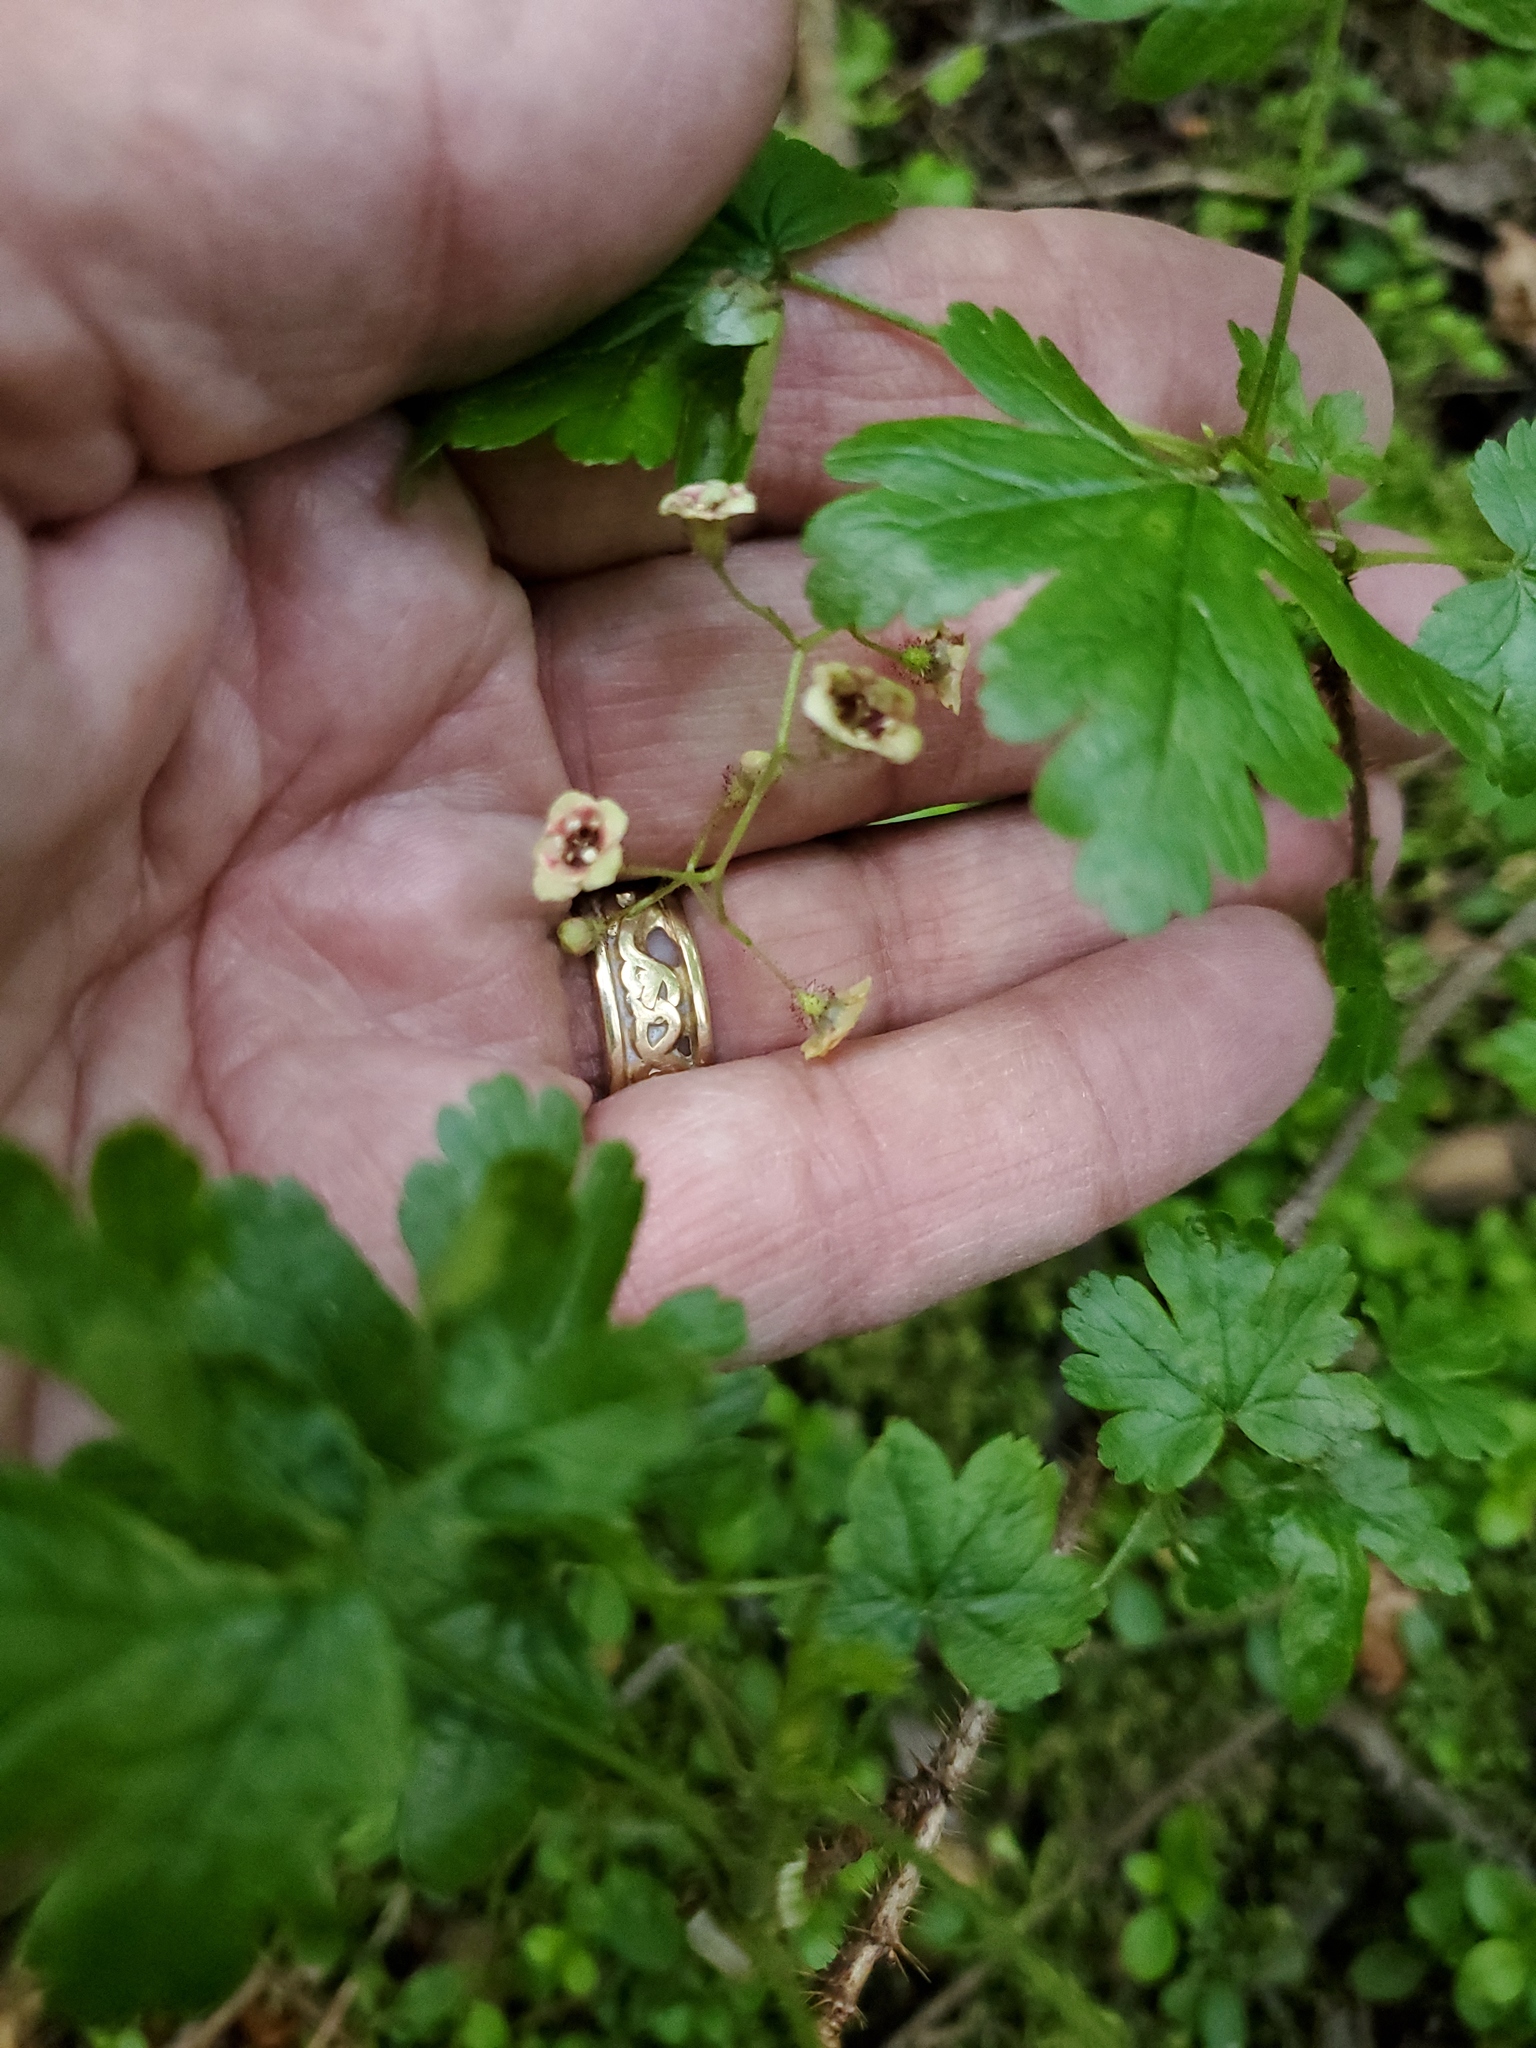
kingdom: Plantae
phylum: Tracheophyta
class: Magnoliopsida
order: Saxifragales
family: Grossulariaceae
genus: Ribes
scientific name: Ribes lacustre
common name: Black gooseberry
